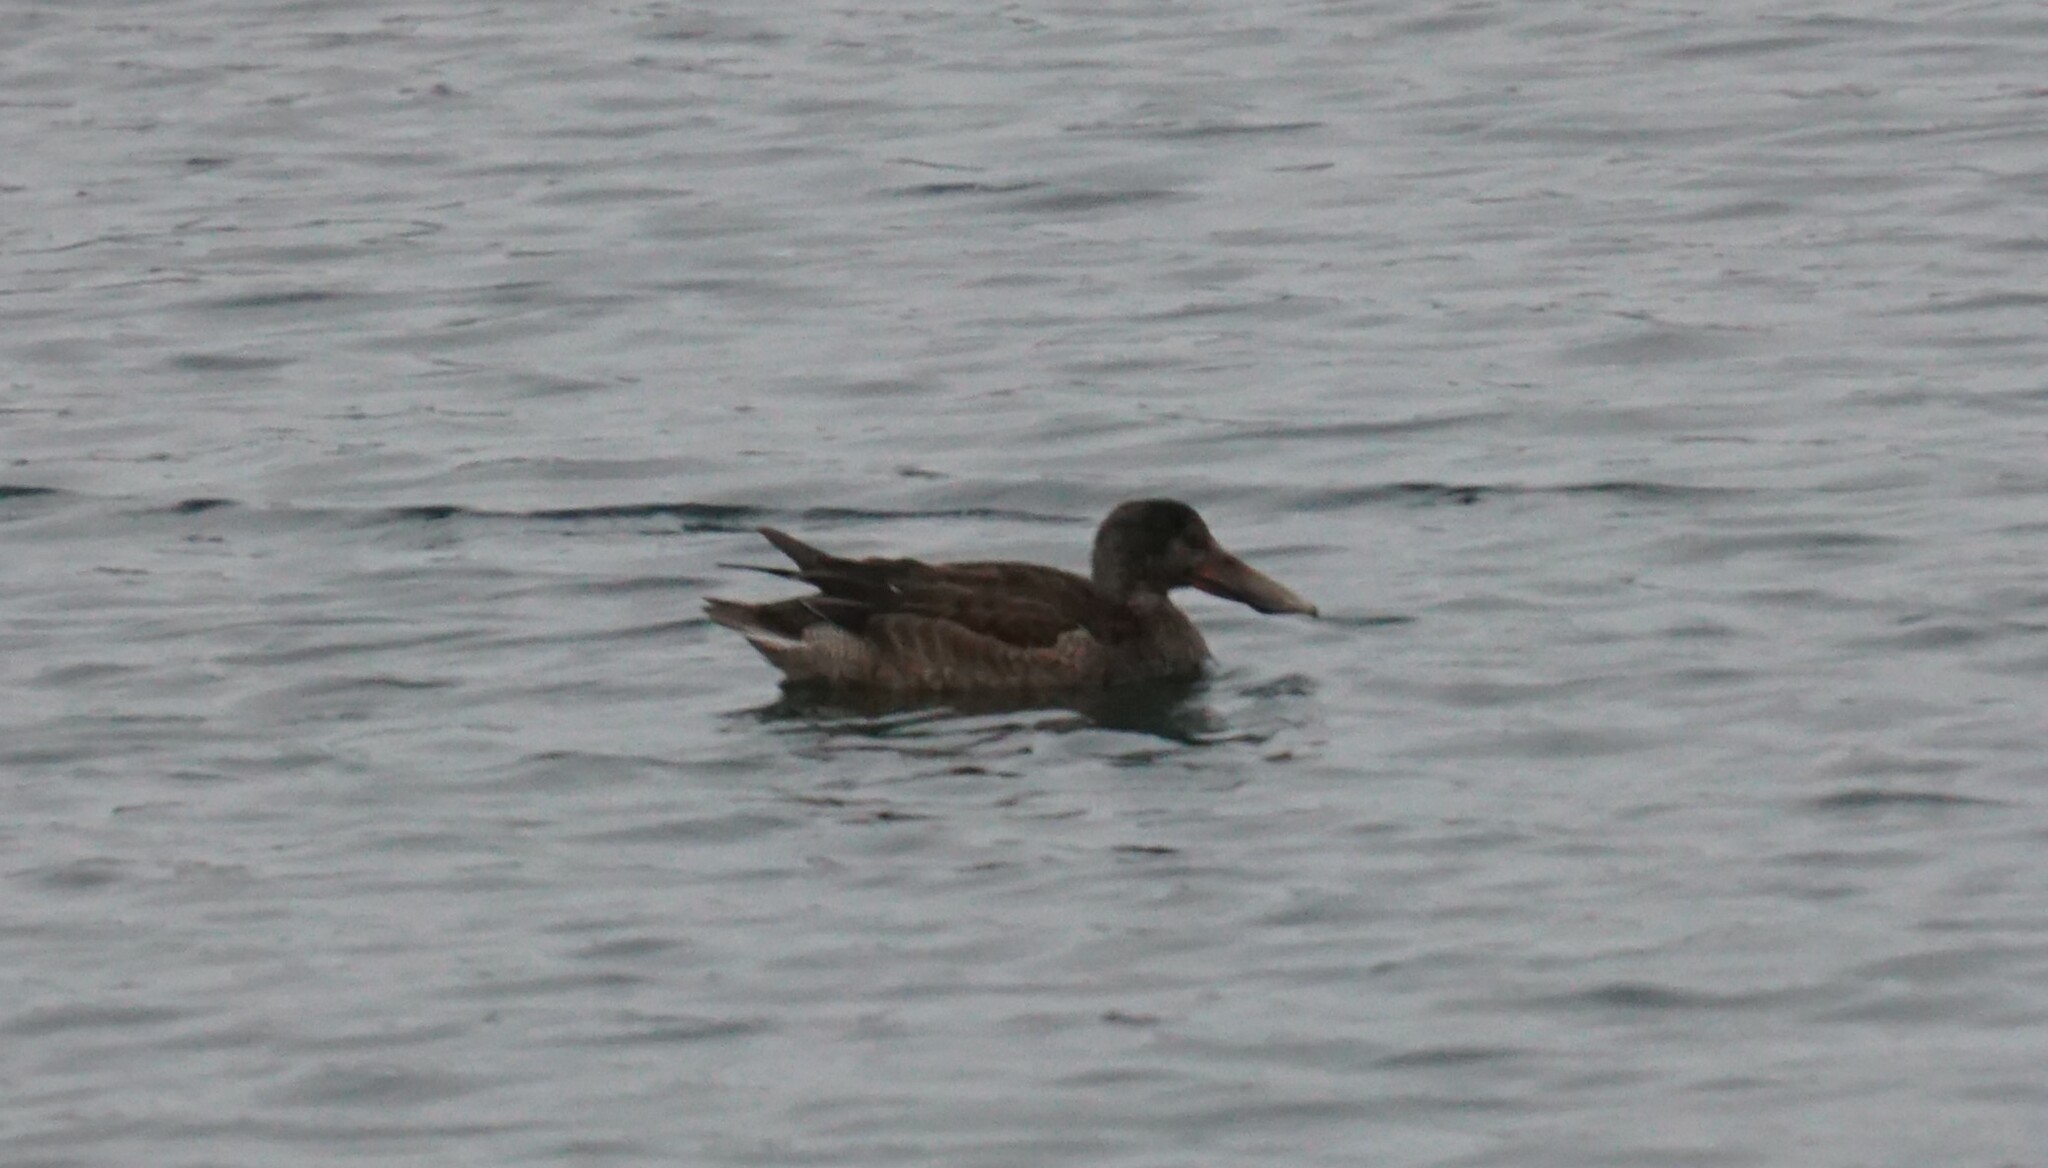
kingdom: Animalia
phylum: Chordata
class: Aves
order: Anseriformes
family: Anatidae
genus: Spatula
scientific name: Spatula clypeata
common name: Northern shoveler
